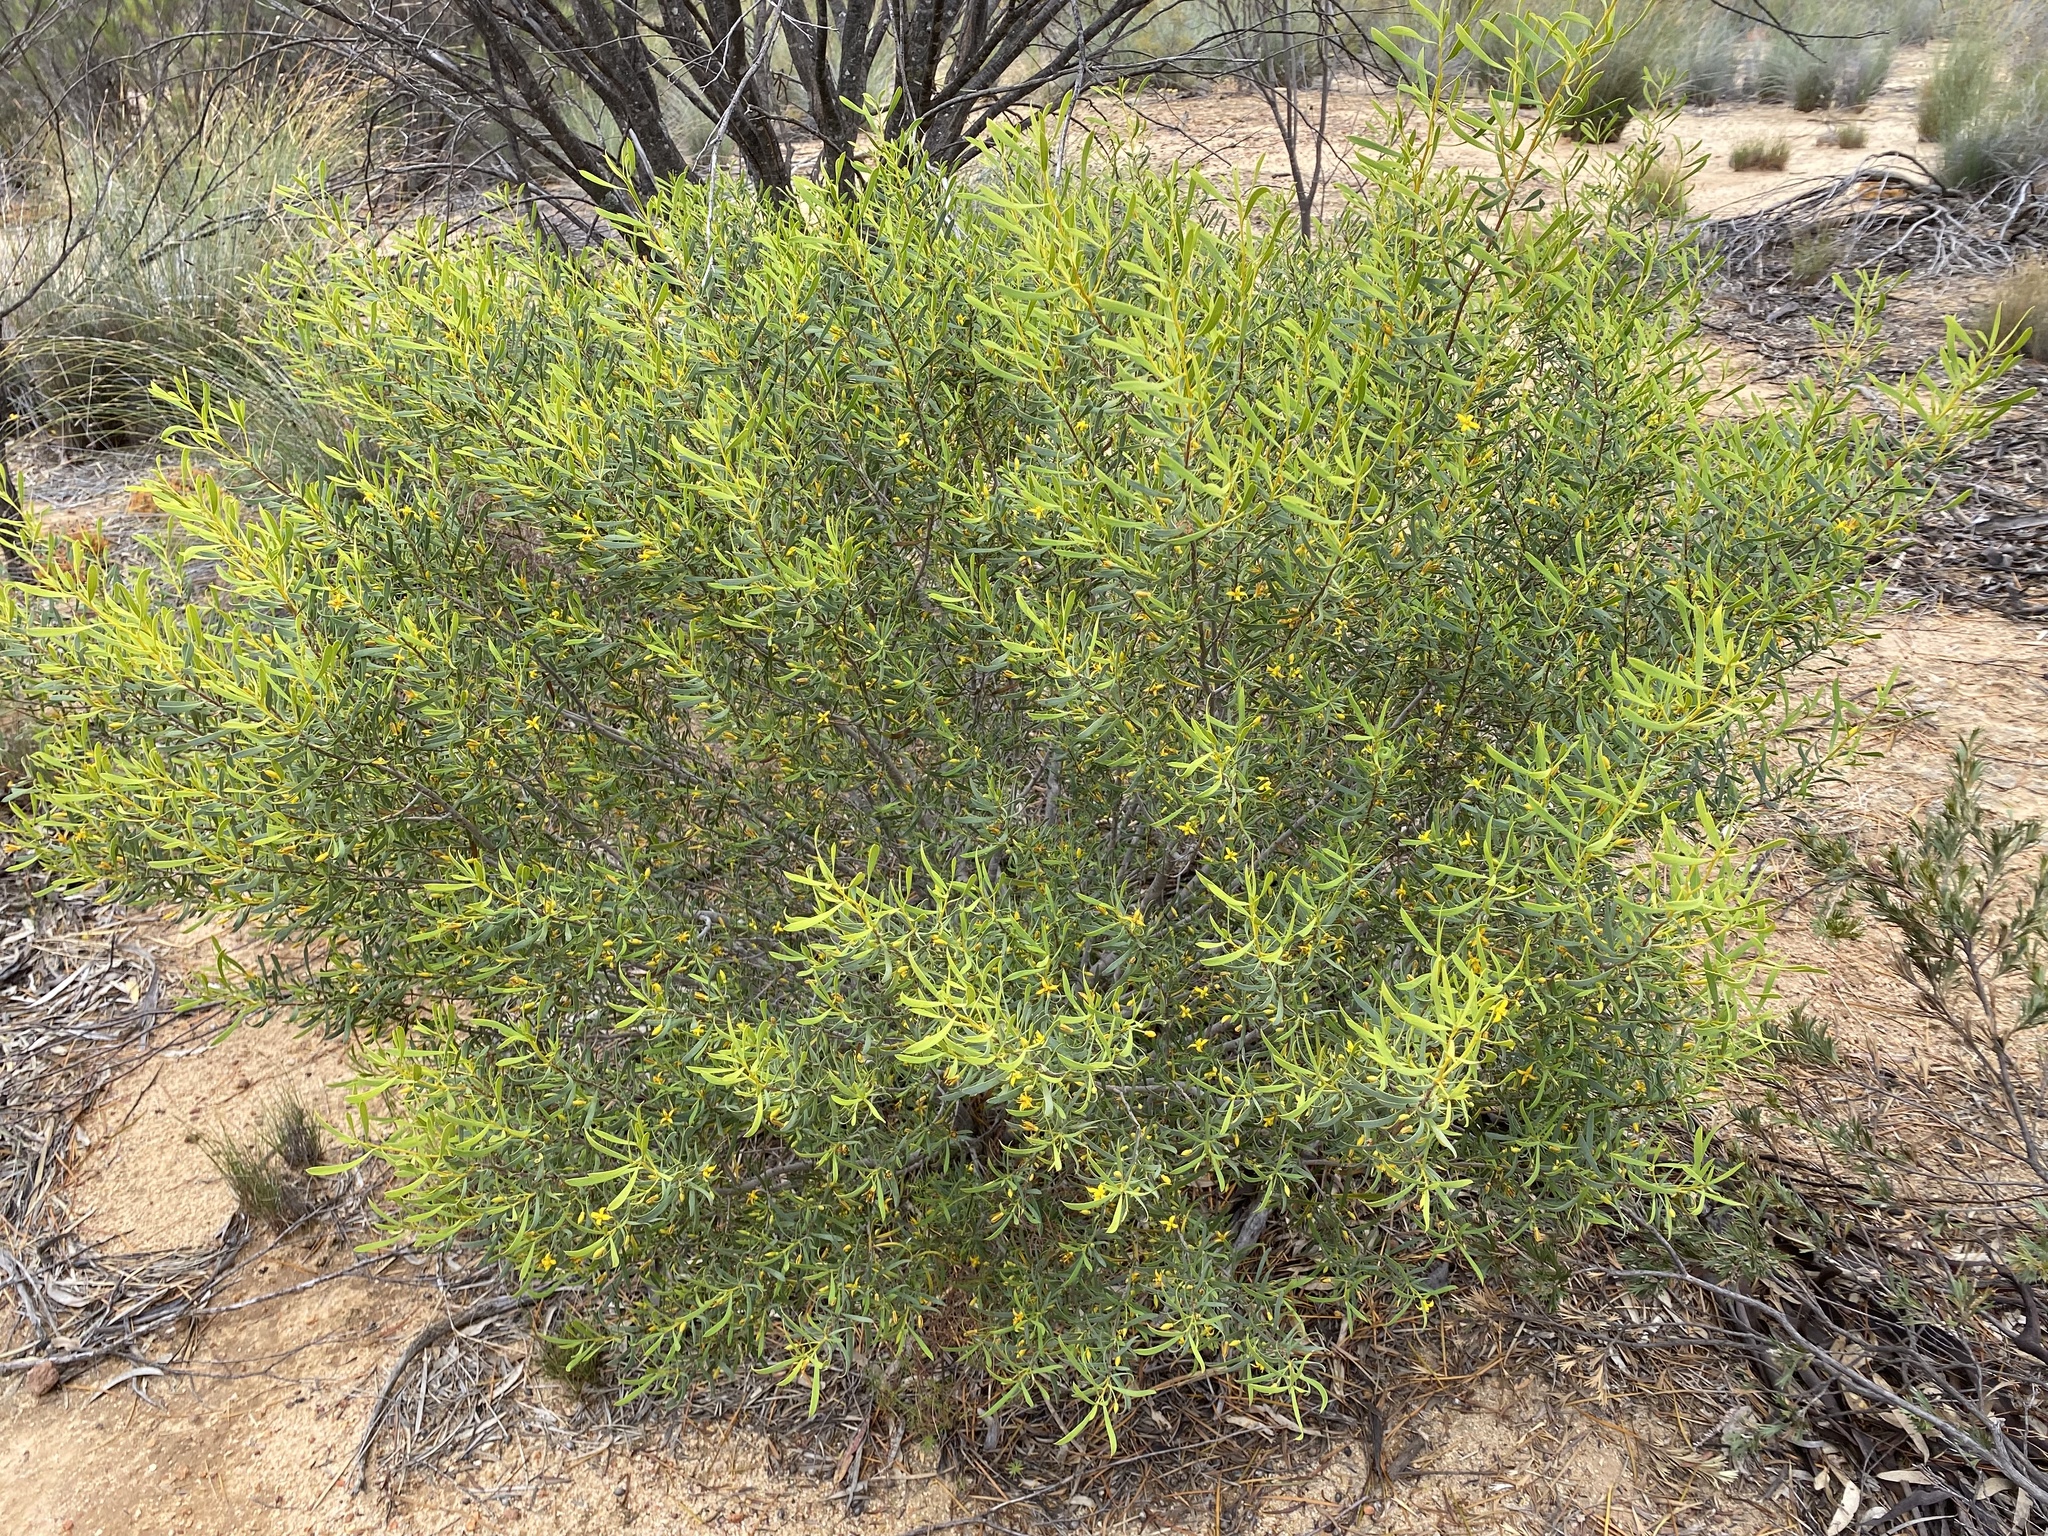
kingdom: Plantae
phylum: Tracheophyta
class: Magnoliopsida
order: Proteales
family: Proteaceae
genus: Persoonia
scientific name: Persoonia quinquenervis
